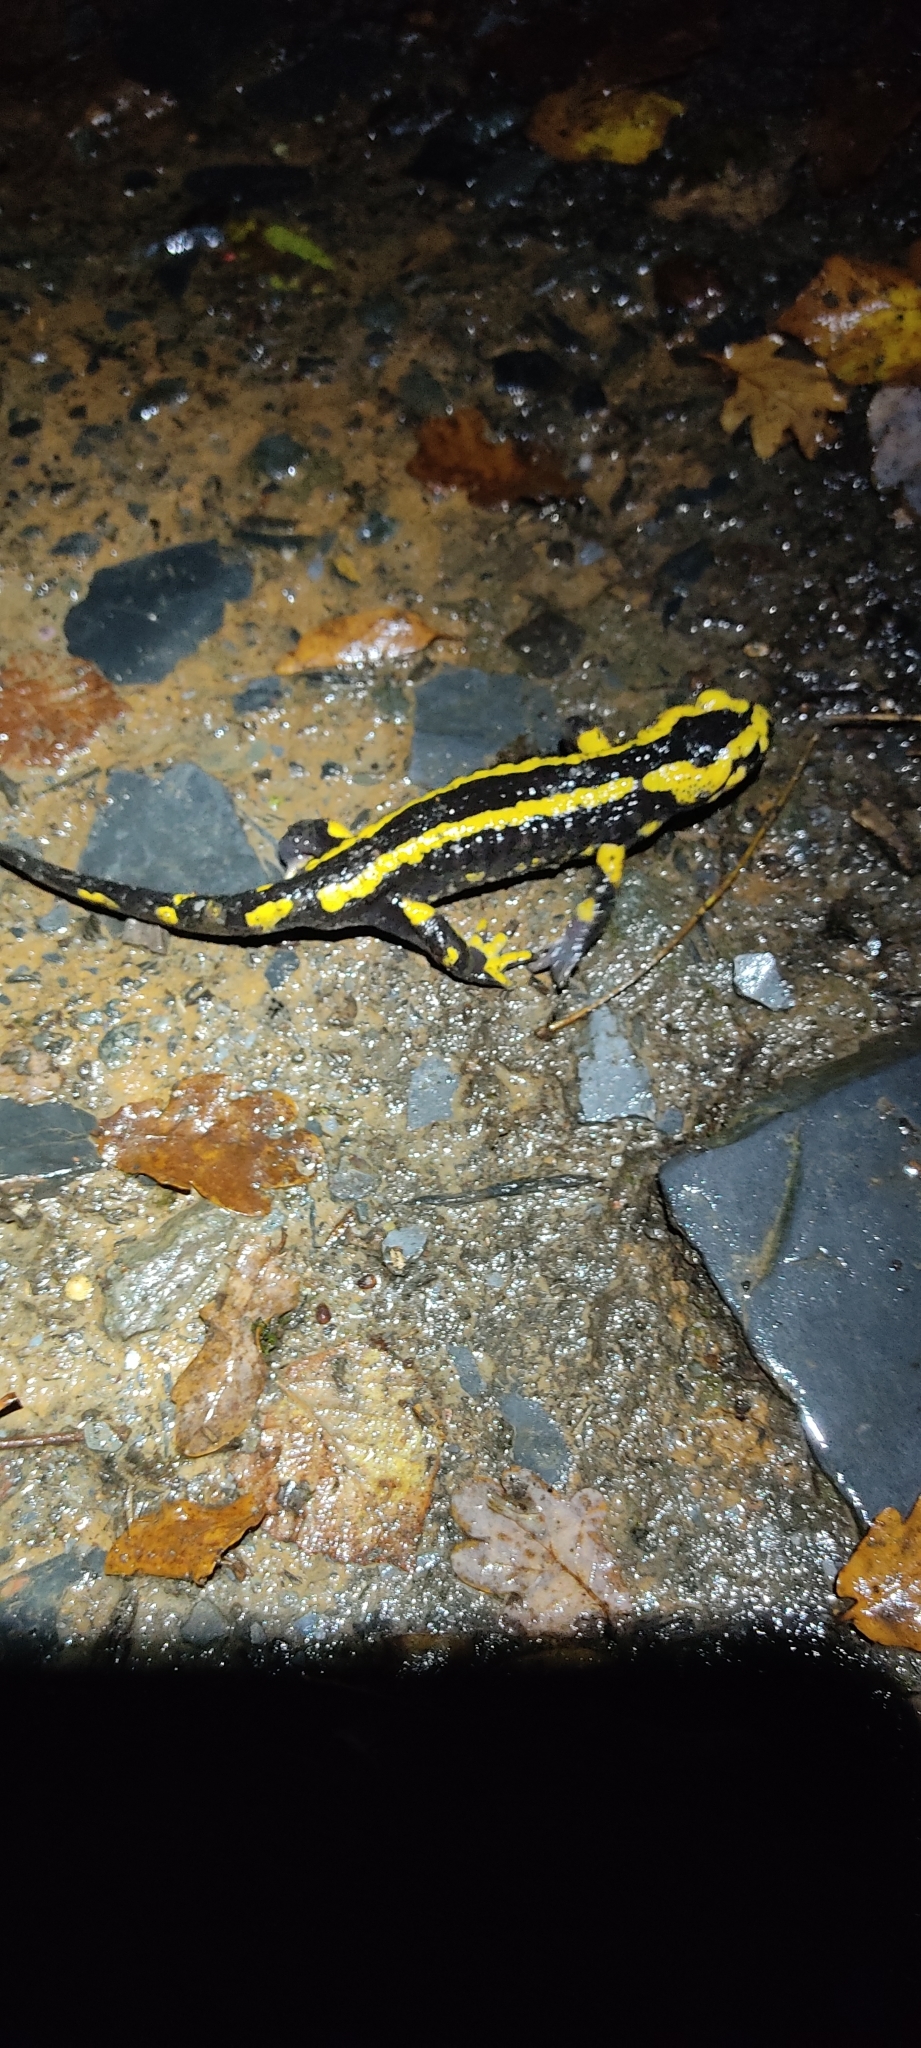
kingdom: Animalia
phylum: Chordata
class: Amphibia
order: Caudata
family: Salamandridae
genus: Salamandra
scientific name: Salamandra salamandra
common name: Fire salamander
